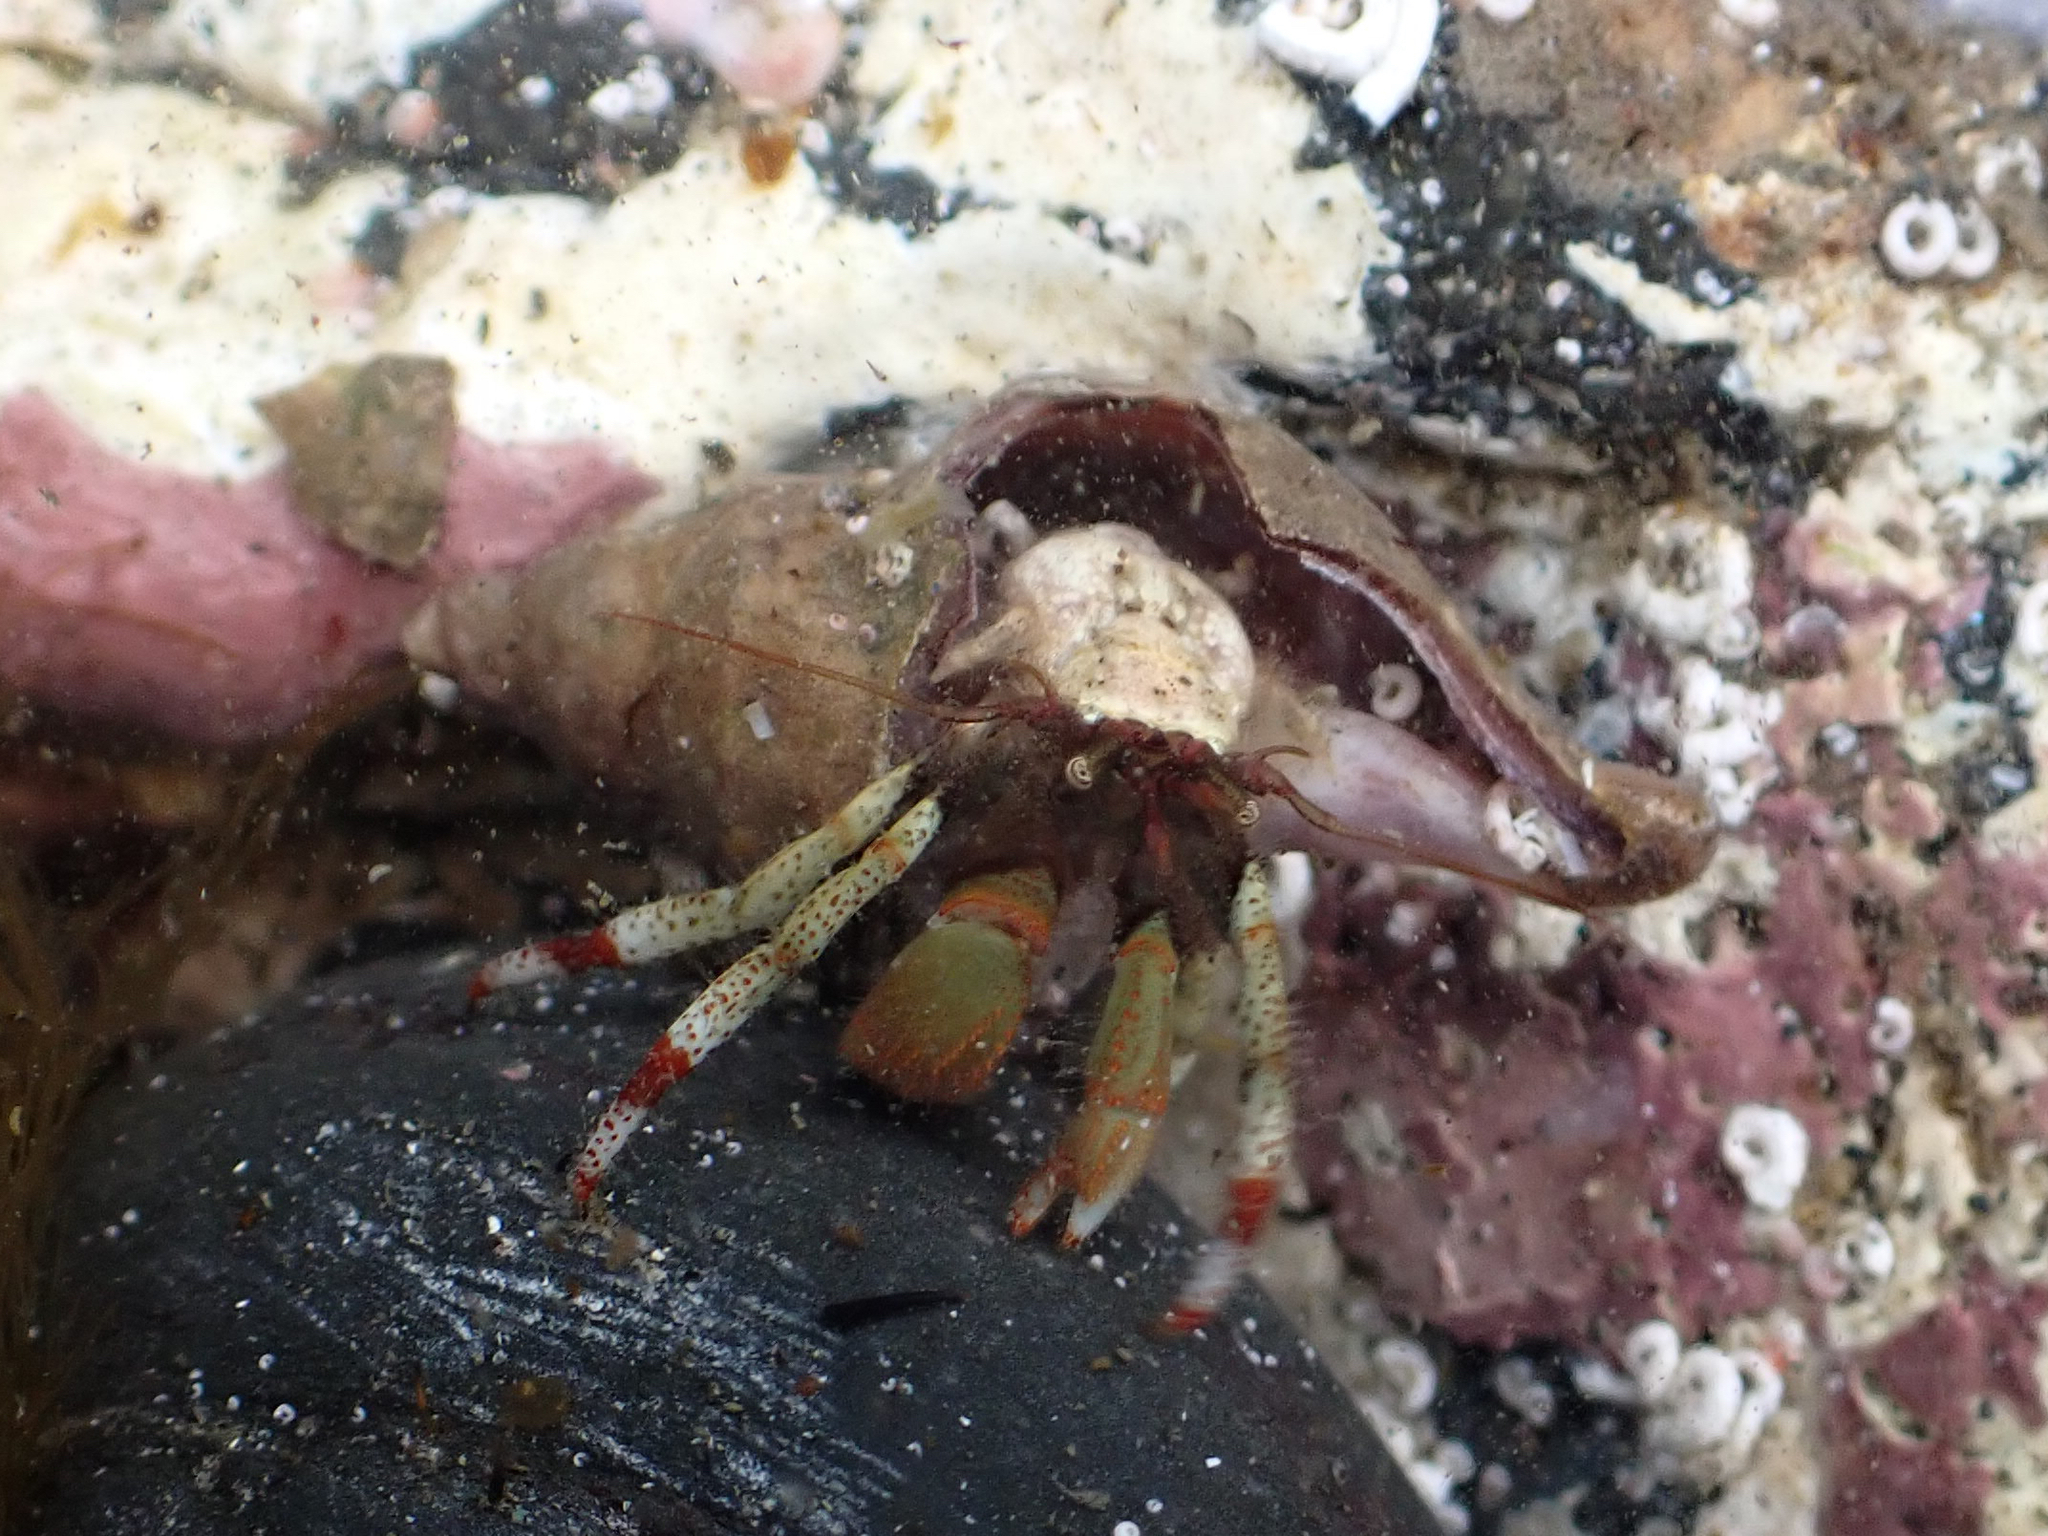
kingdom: Animalia
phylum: Arthropoda
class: Malacostraca
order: Decapoda
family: Paguridae
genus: Pagurus
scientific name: Pagurus beringanus
